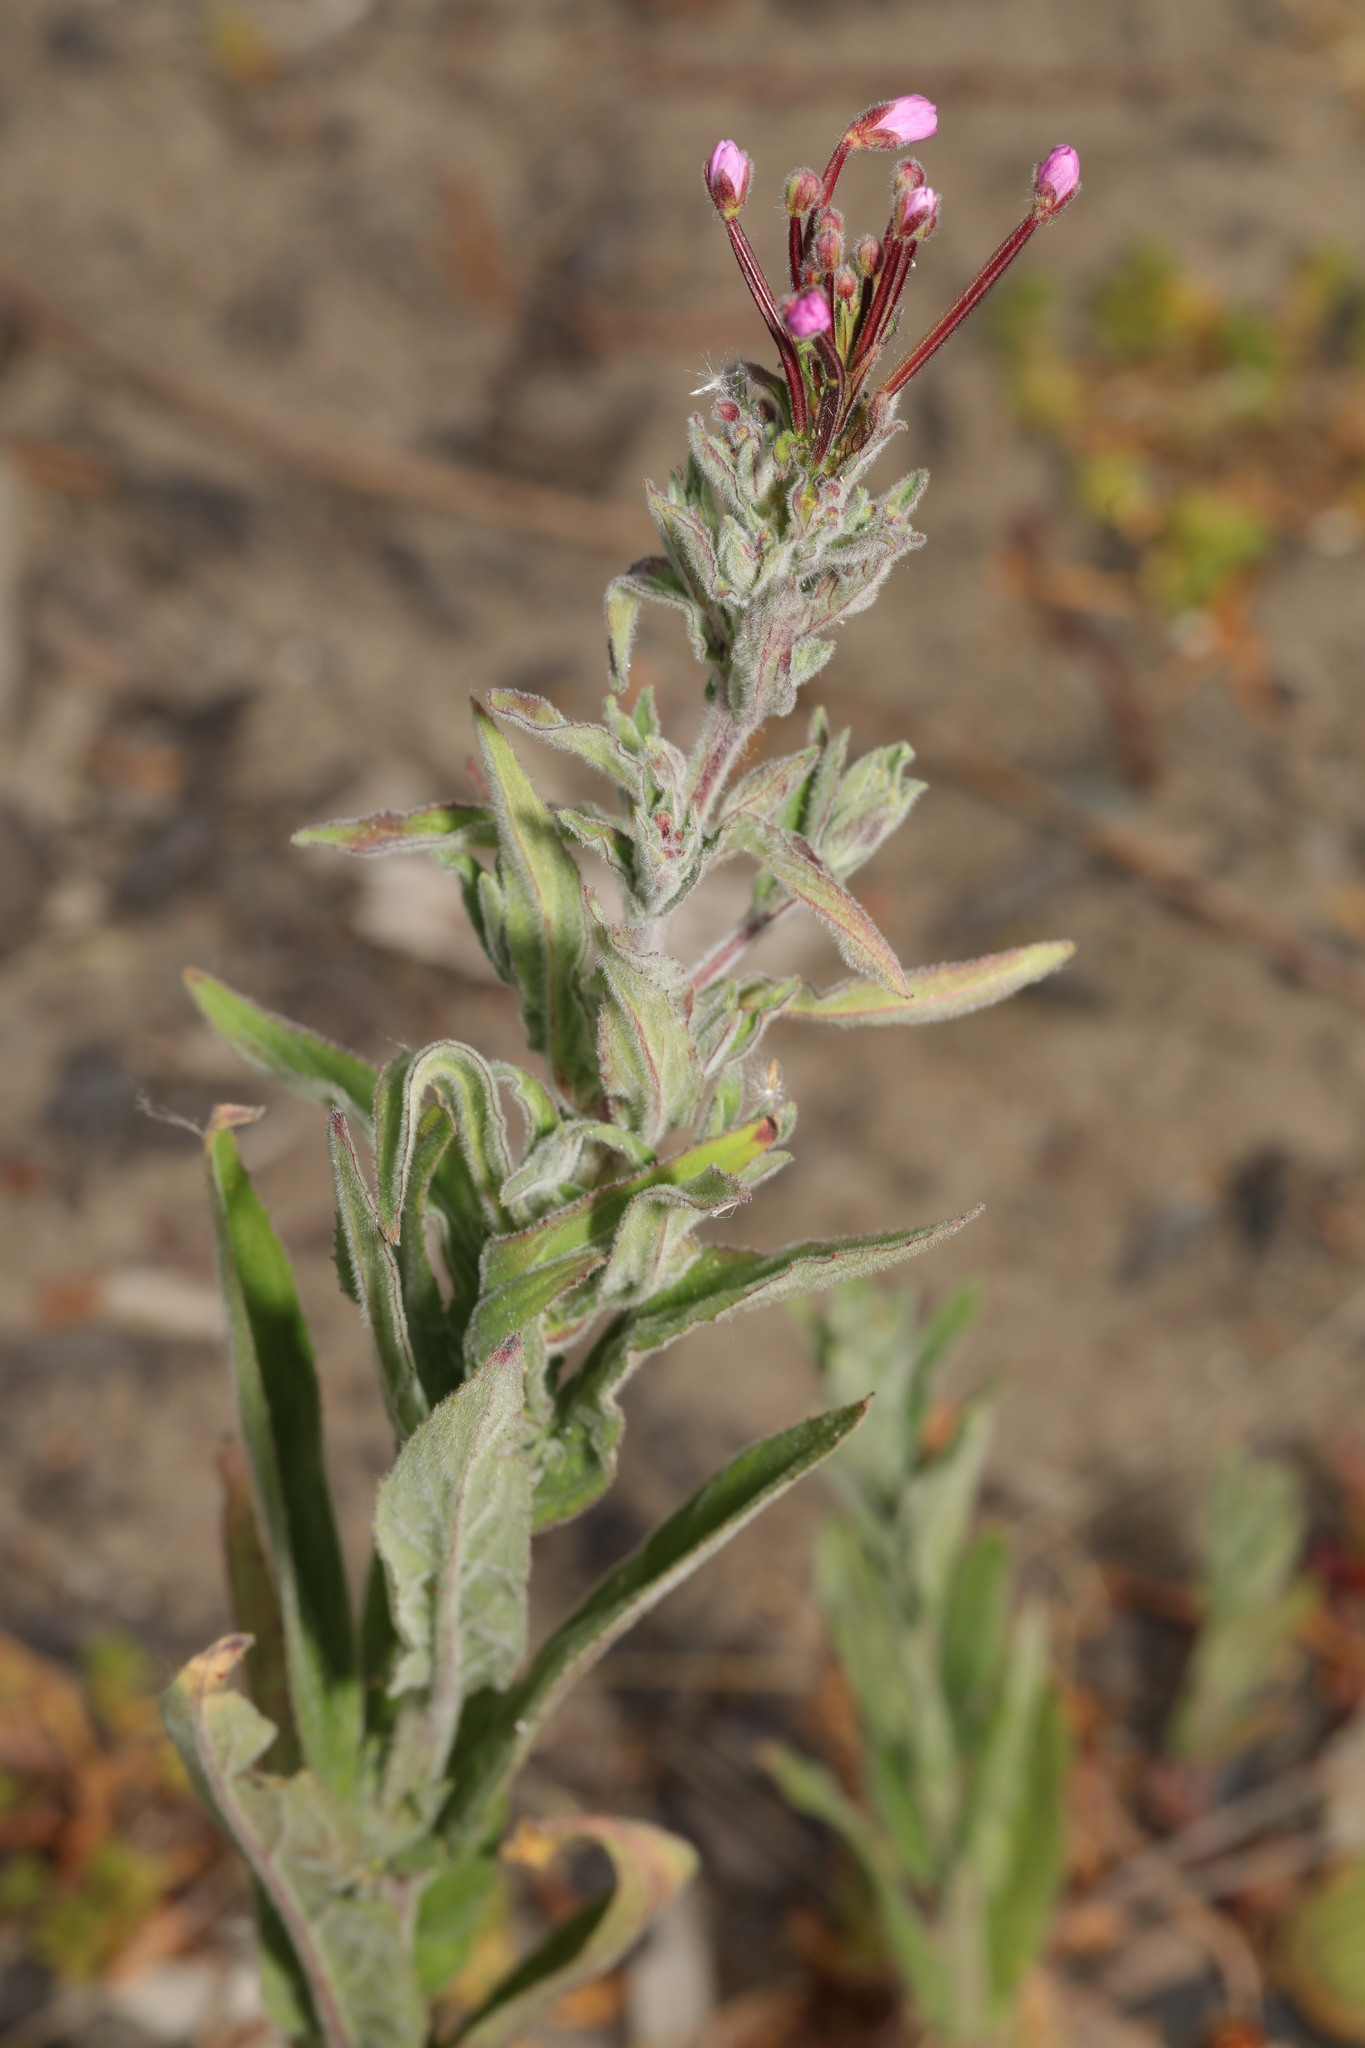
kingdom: Plantae
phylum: Tracheophyta
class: Magnoliopsida
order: Myrtales
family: Onagraceae
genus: Epilobium
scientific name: Epilobium parviflorum
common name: Hoary willowherb
